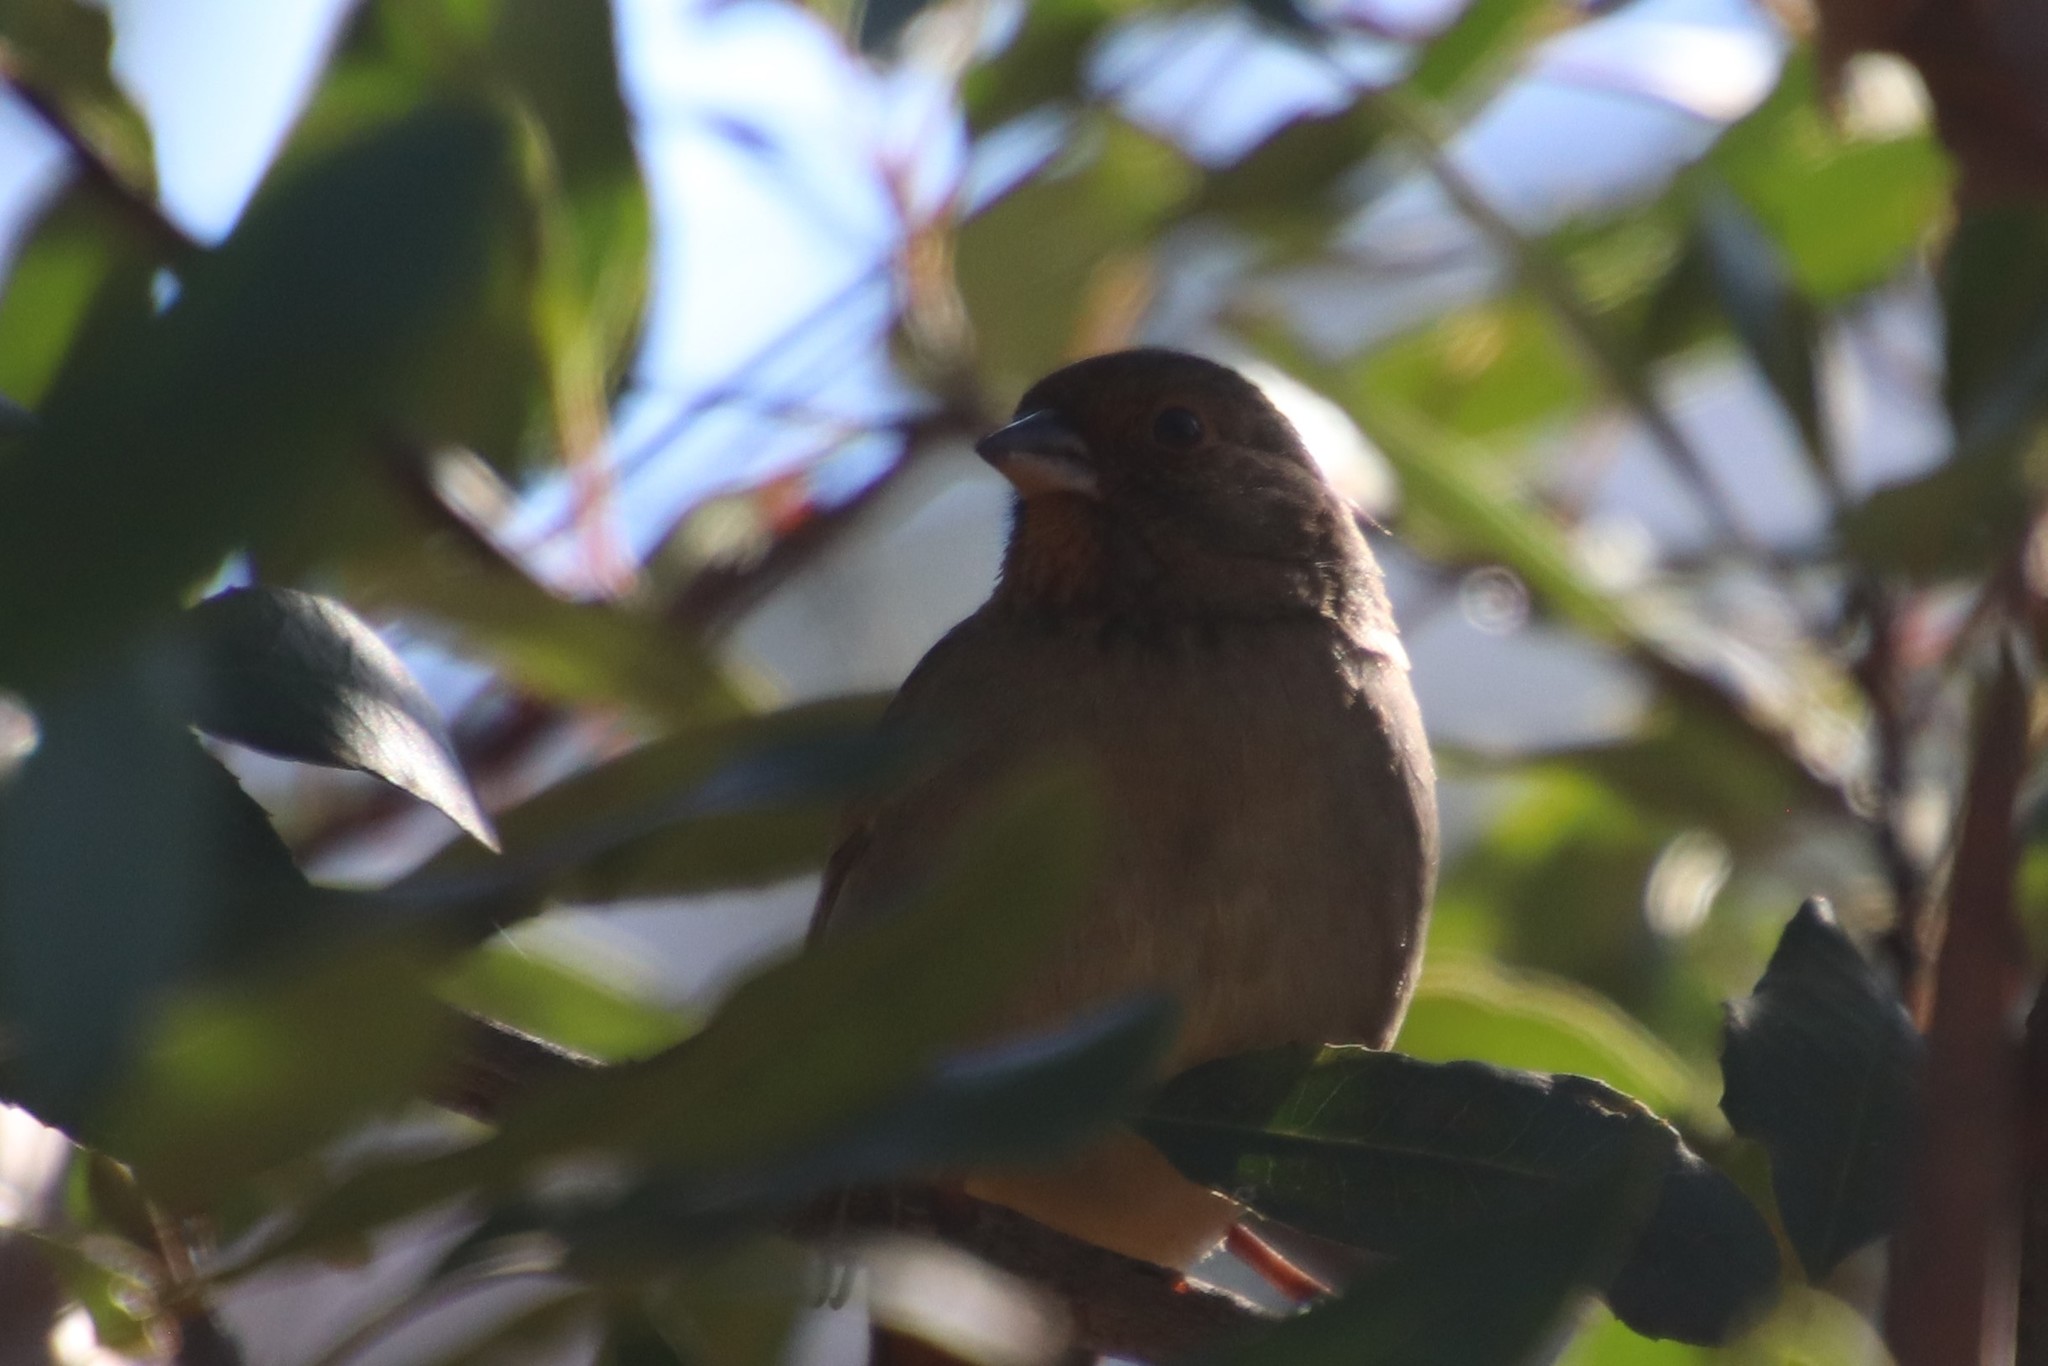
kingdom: Animalia
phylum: Chordata
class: Aves
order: Passeriformes
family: Passerellidae
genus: Melozone
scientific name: Melozone crissalis
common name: California towhee
